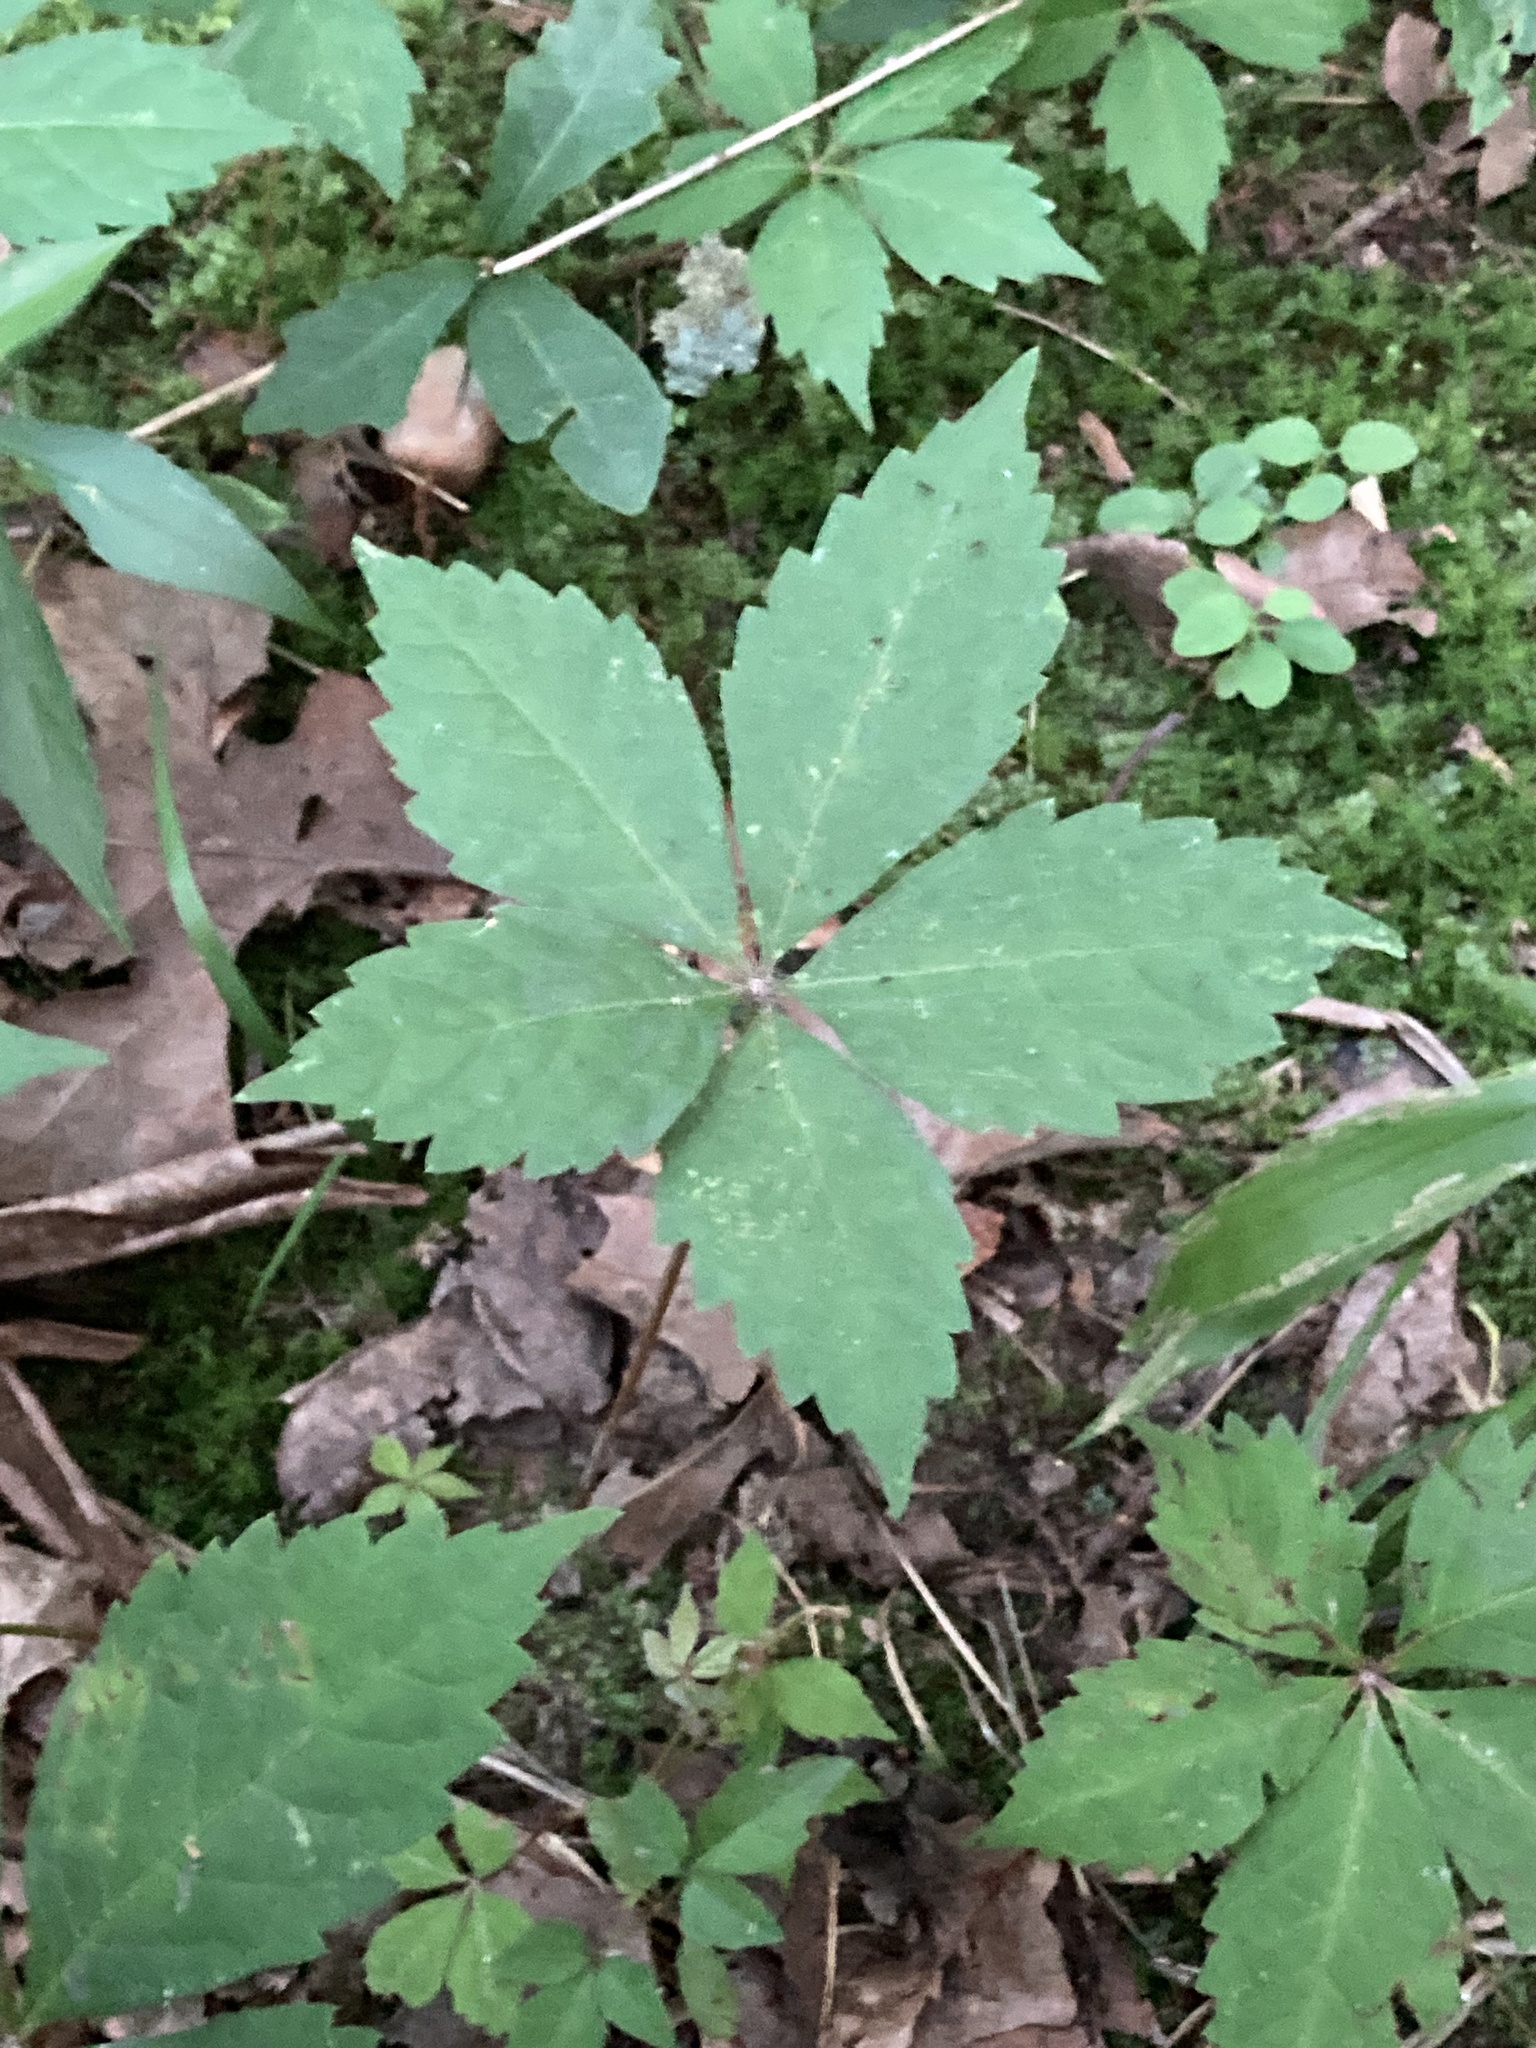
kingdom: Plantae
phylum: Tracheophyta
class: Magnoliopsida
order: Vitales
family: Vitaceae
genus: Parthenocissus
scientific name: Parthenocissus quinquefolia
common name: Virginia-creeper
